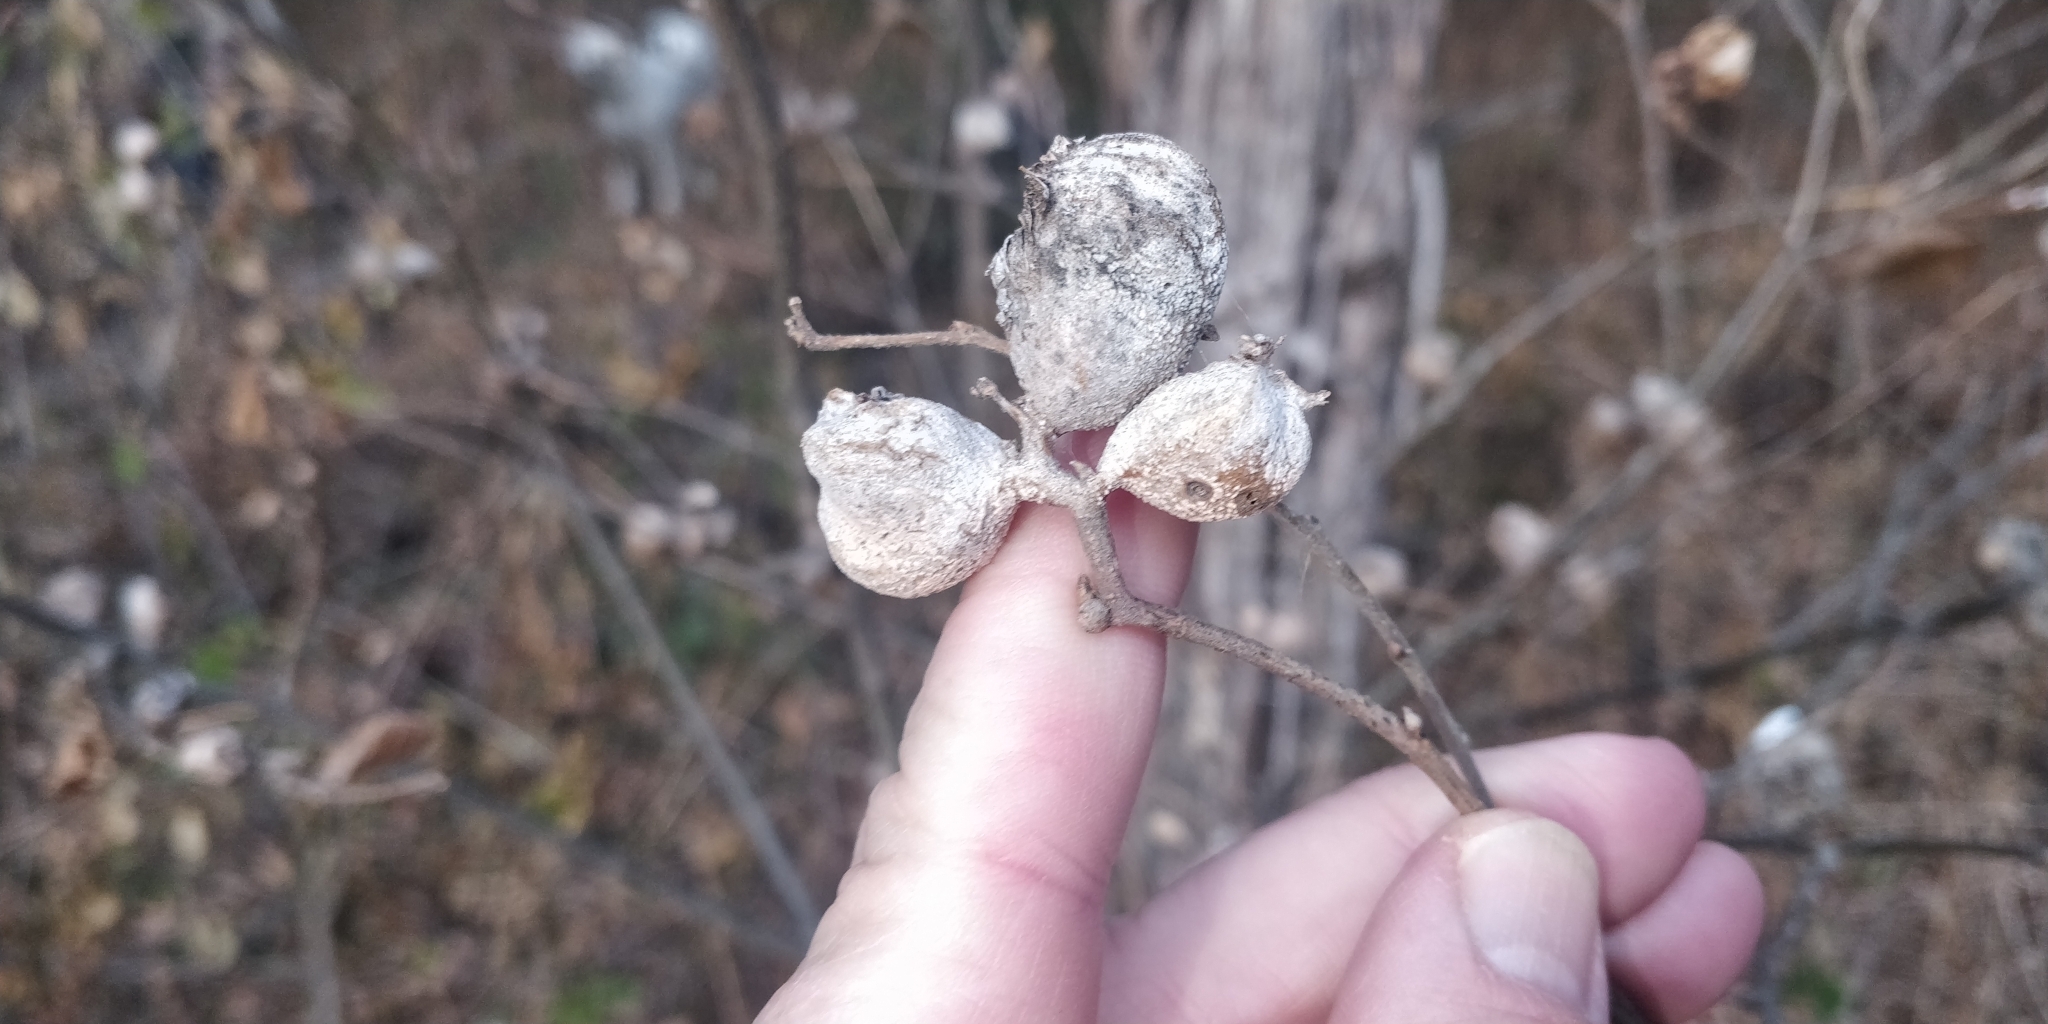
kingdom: Animalia
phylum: Arthropoda
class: Insecta
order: Hemiptera
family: Aphalaridae
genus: Pachypsylla
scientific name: Pachypsylla venusta
